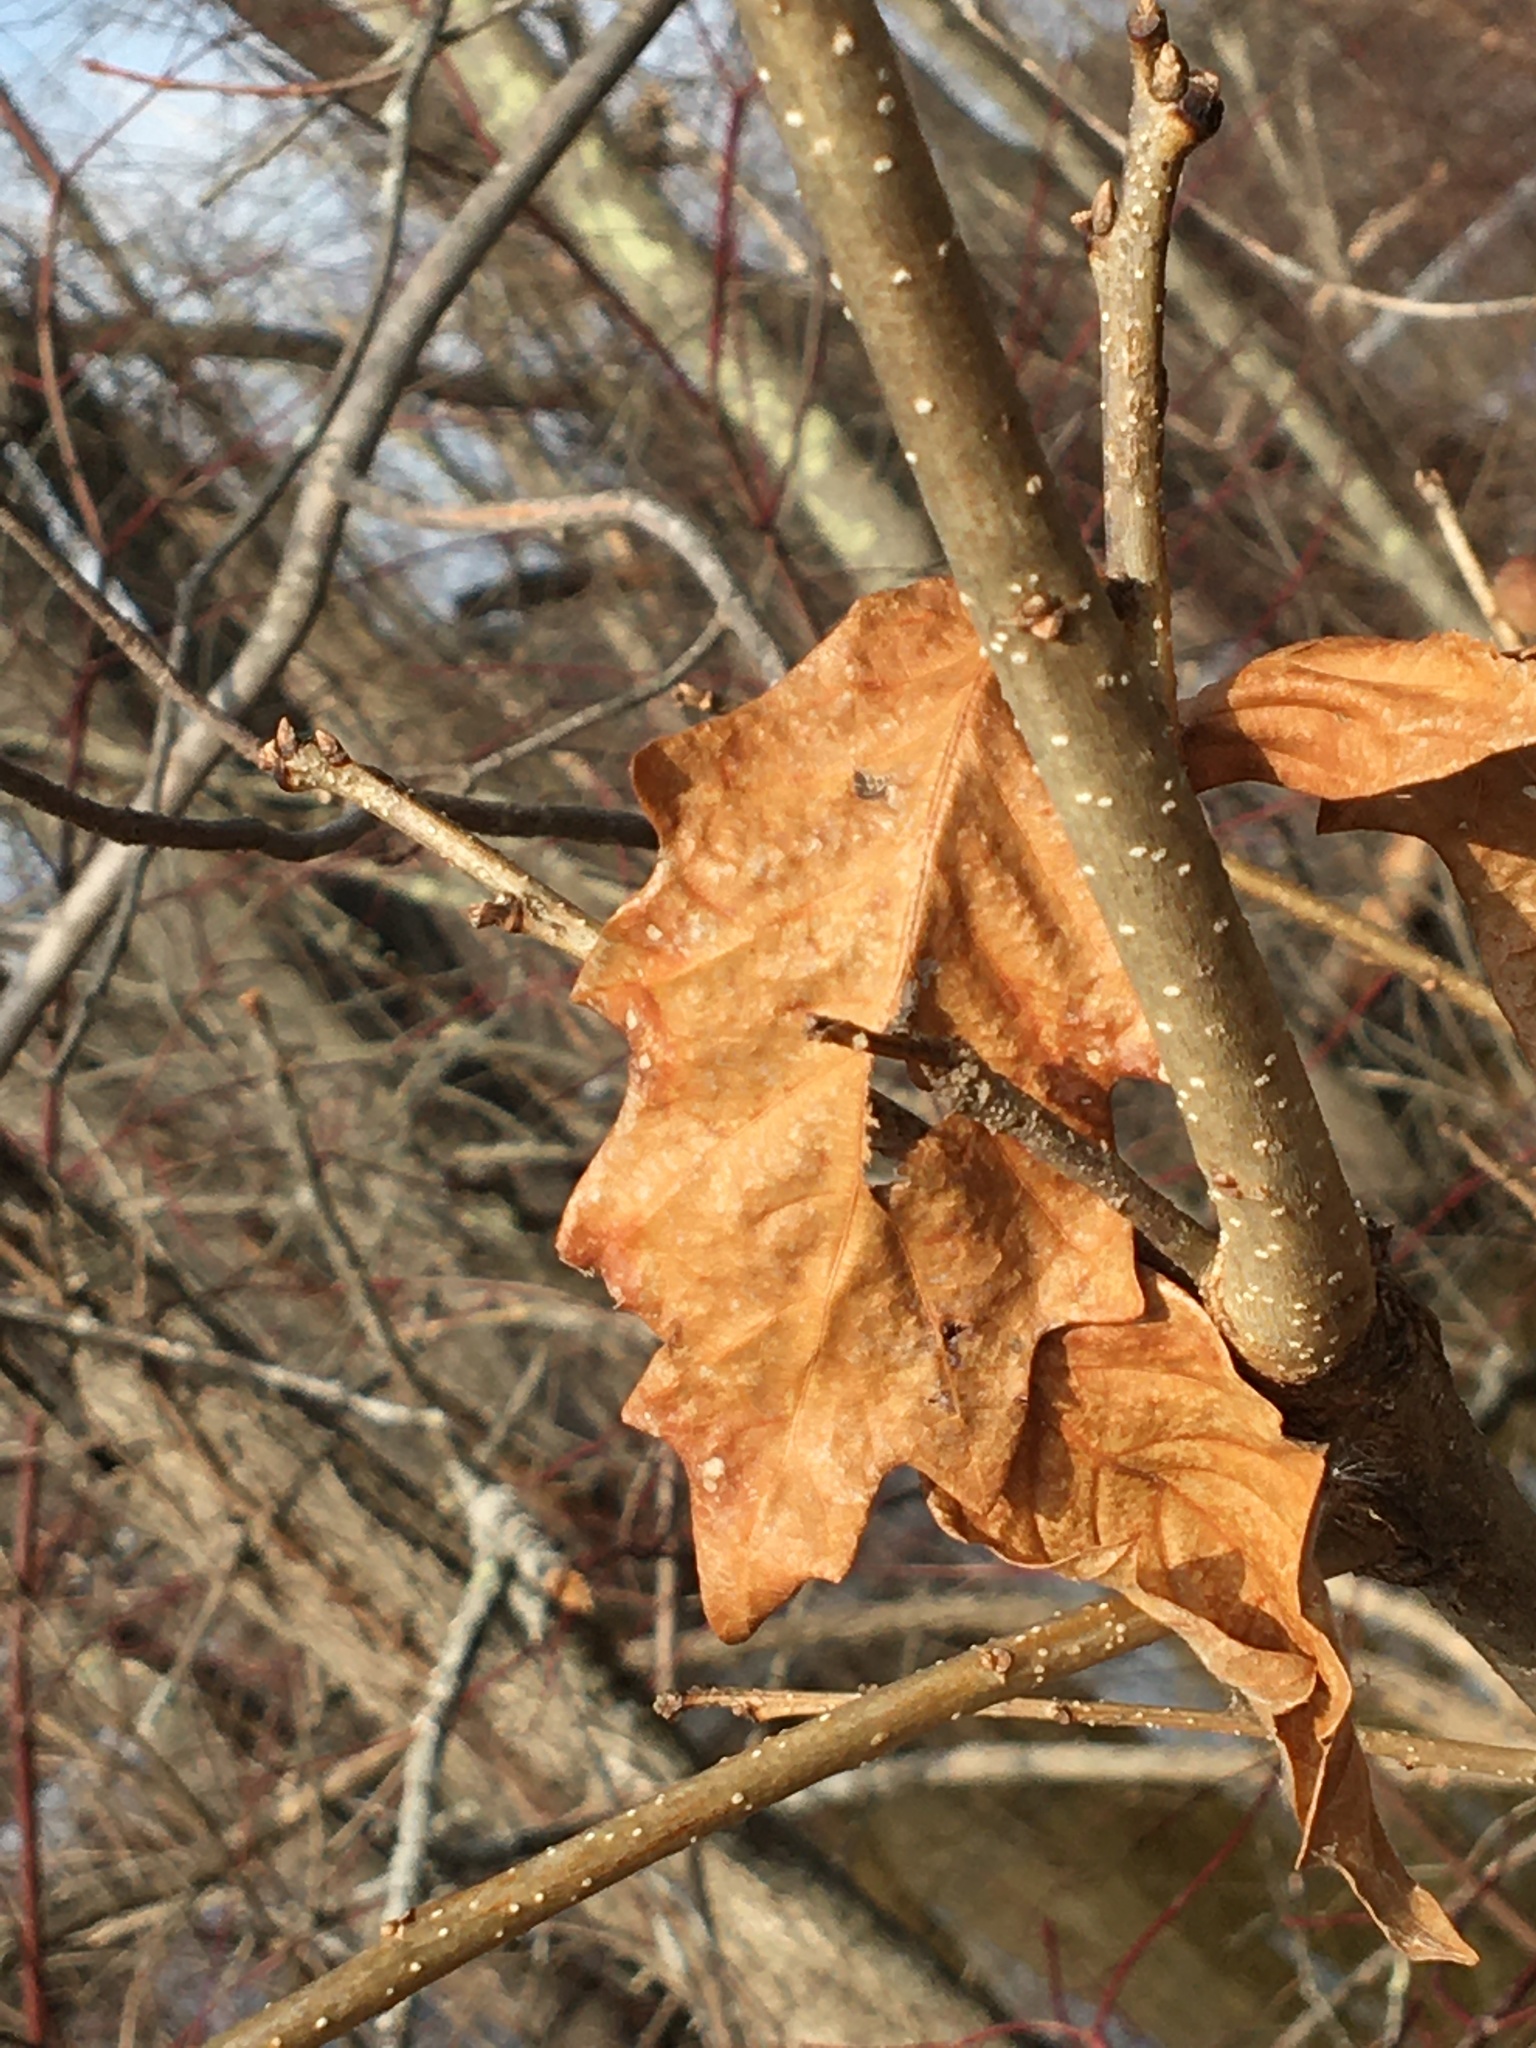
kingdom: Plantae
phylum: Tracheophyta
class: Magnoliopsida
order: Fagales
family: Fagaceae
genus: Quercus
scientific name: Quercus bicolor
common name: Swamp white oak
